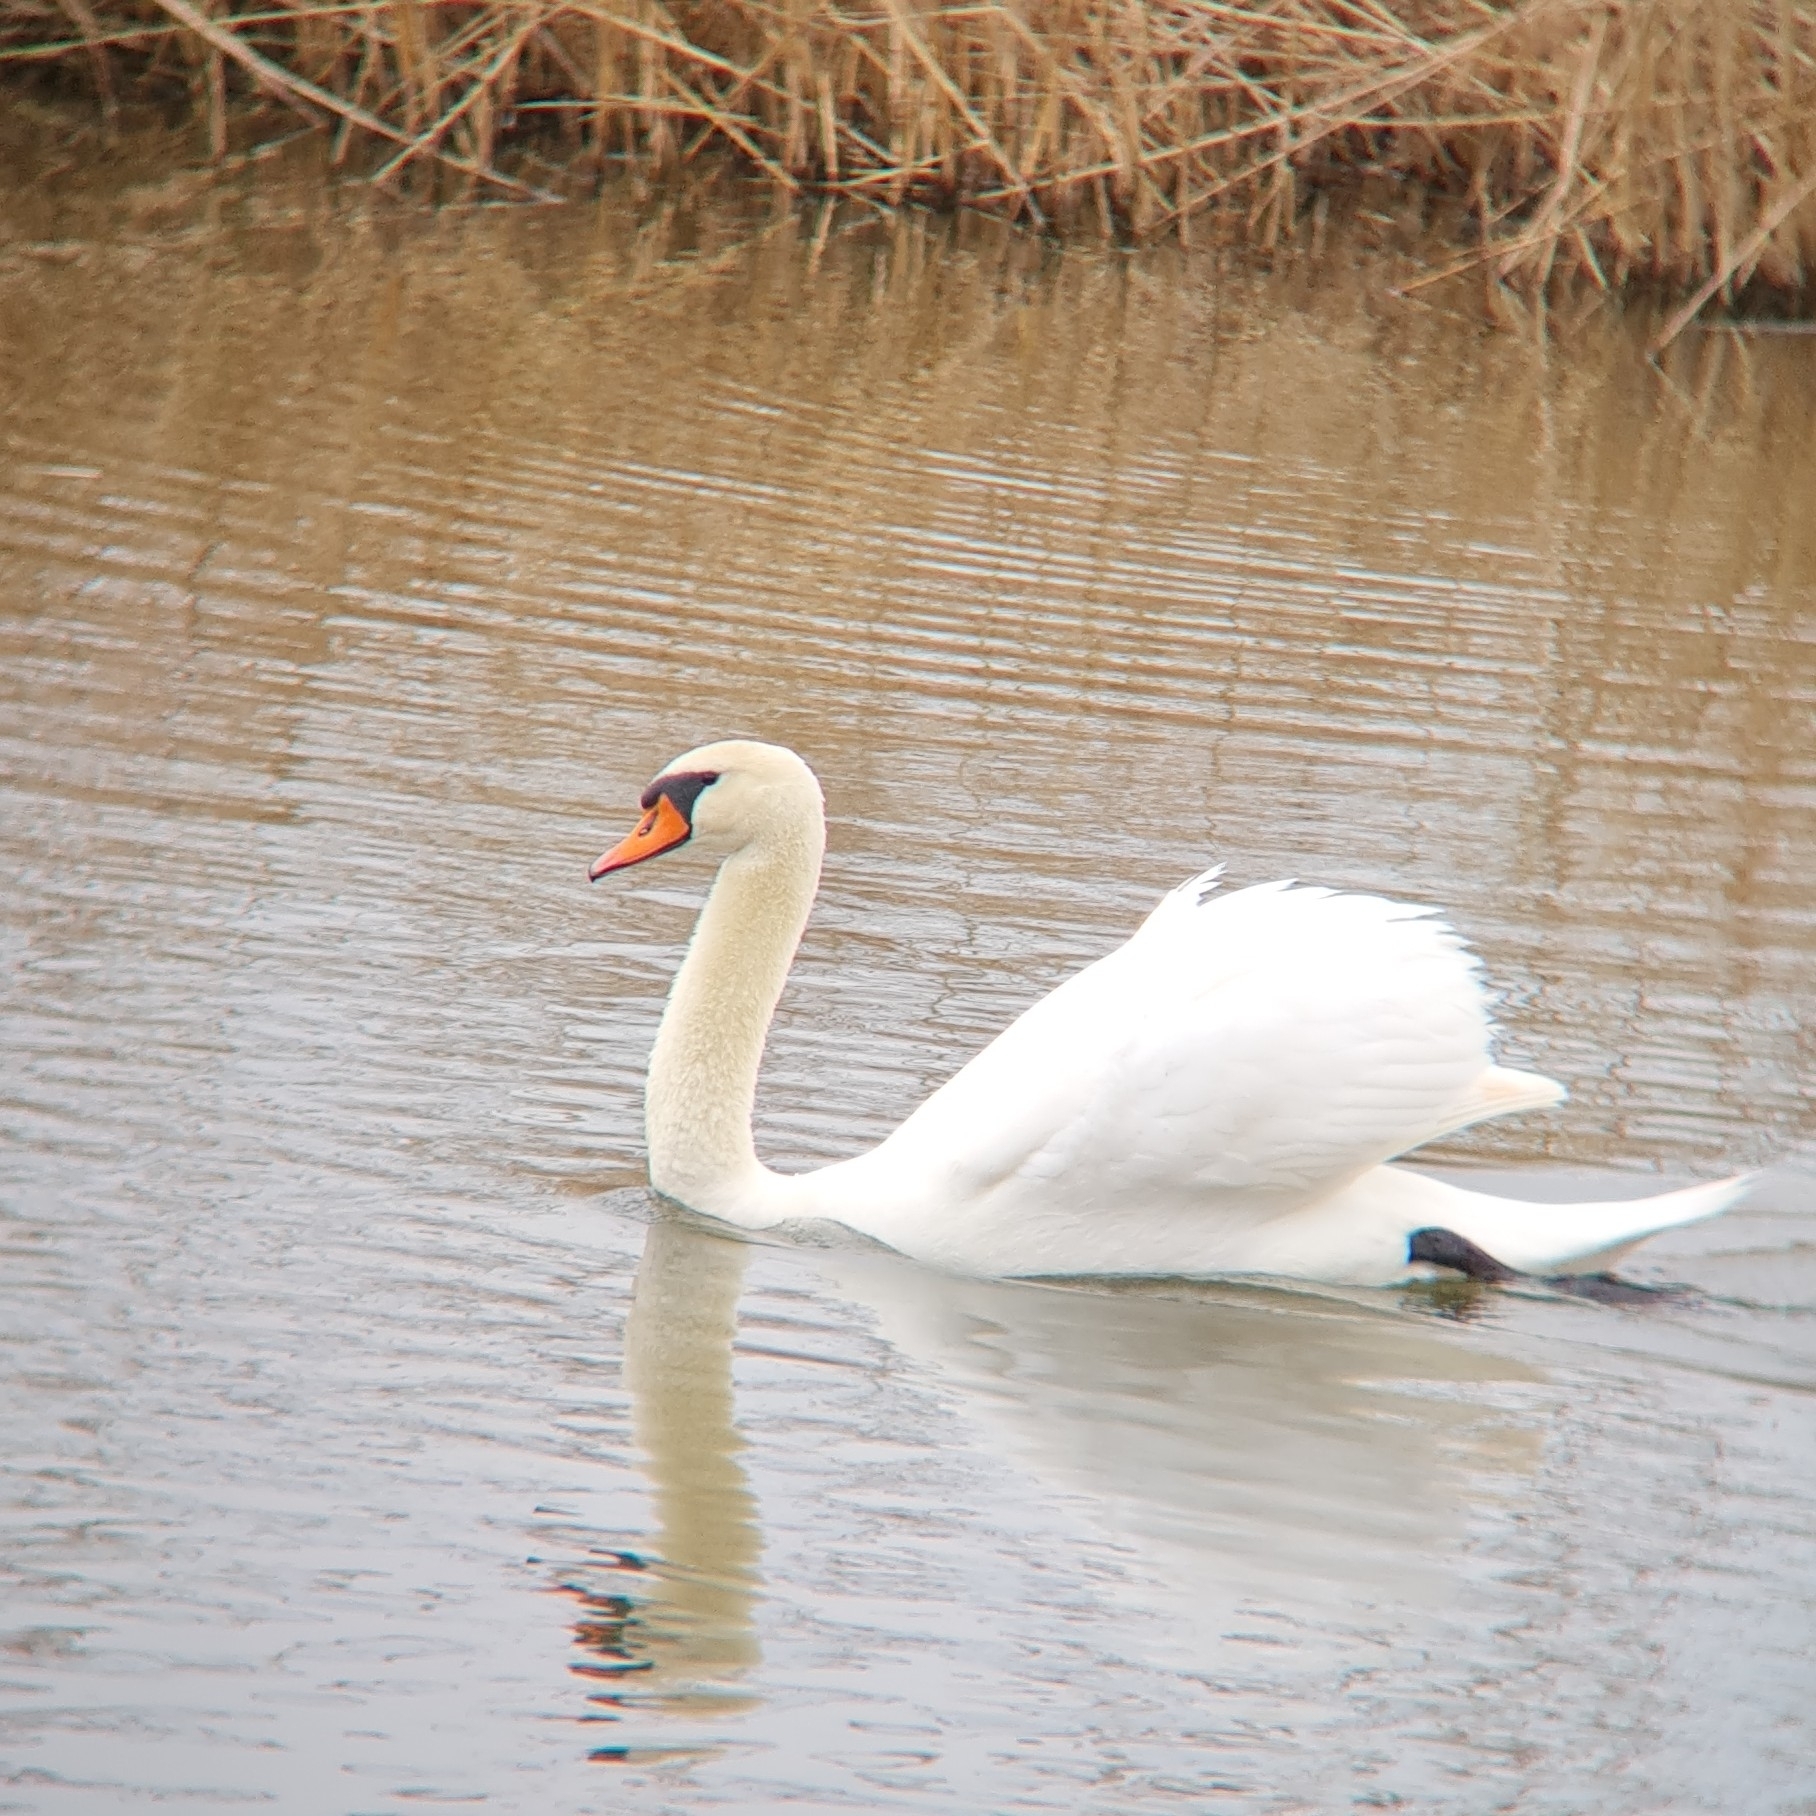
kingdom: Animalia
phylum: Chordata
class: Aves
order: Anseriformes
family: Anatidae
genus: Cygnus
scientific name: Cygnus olor
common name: Mute swan
